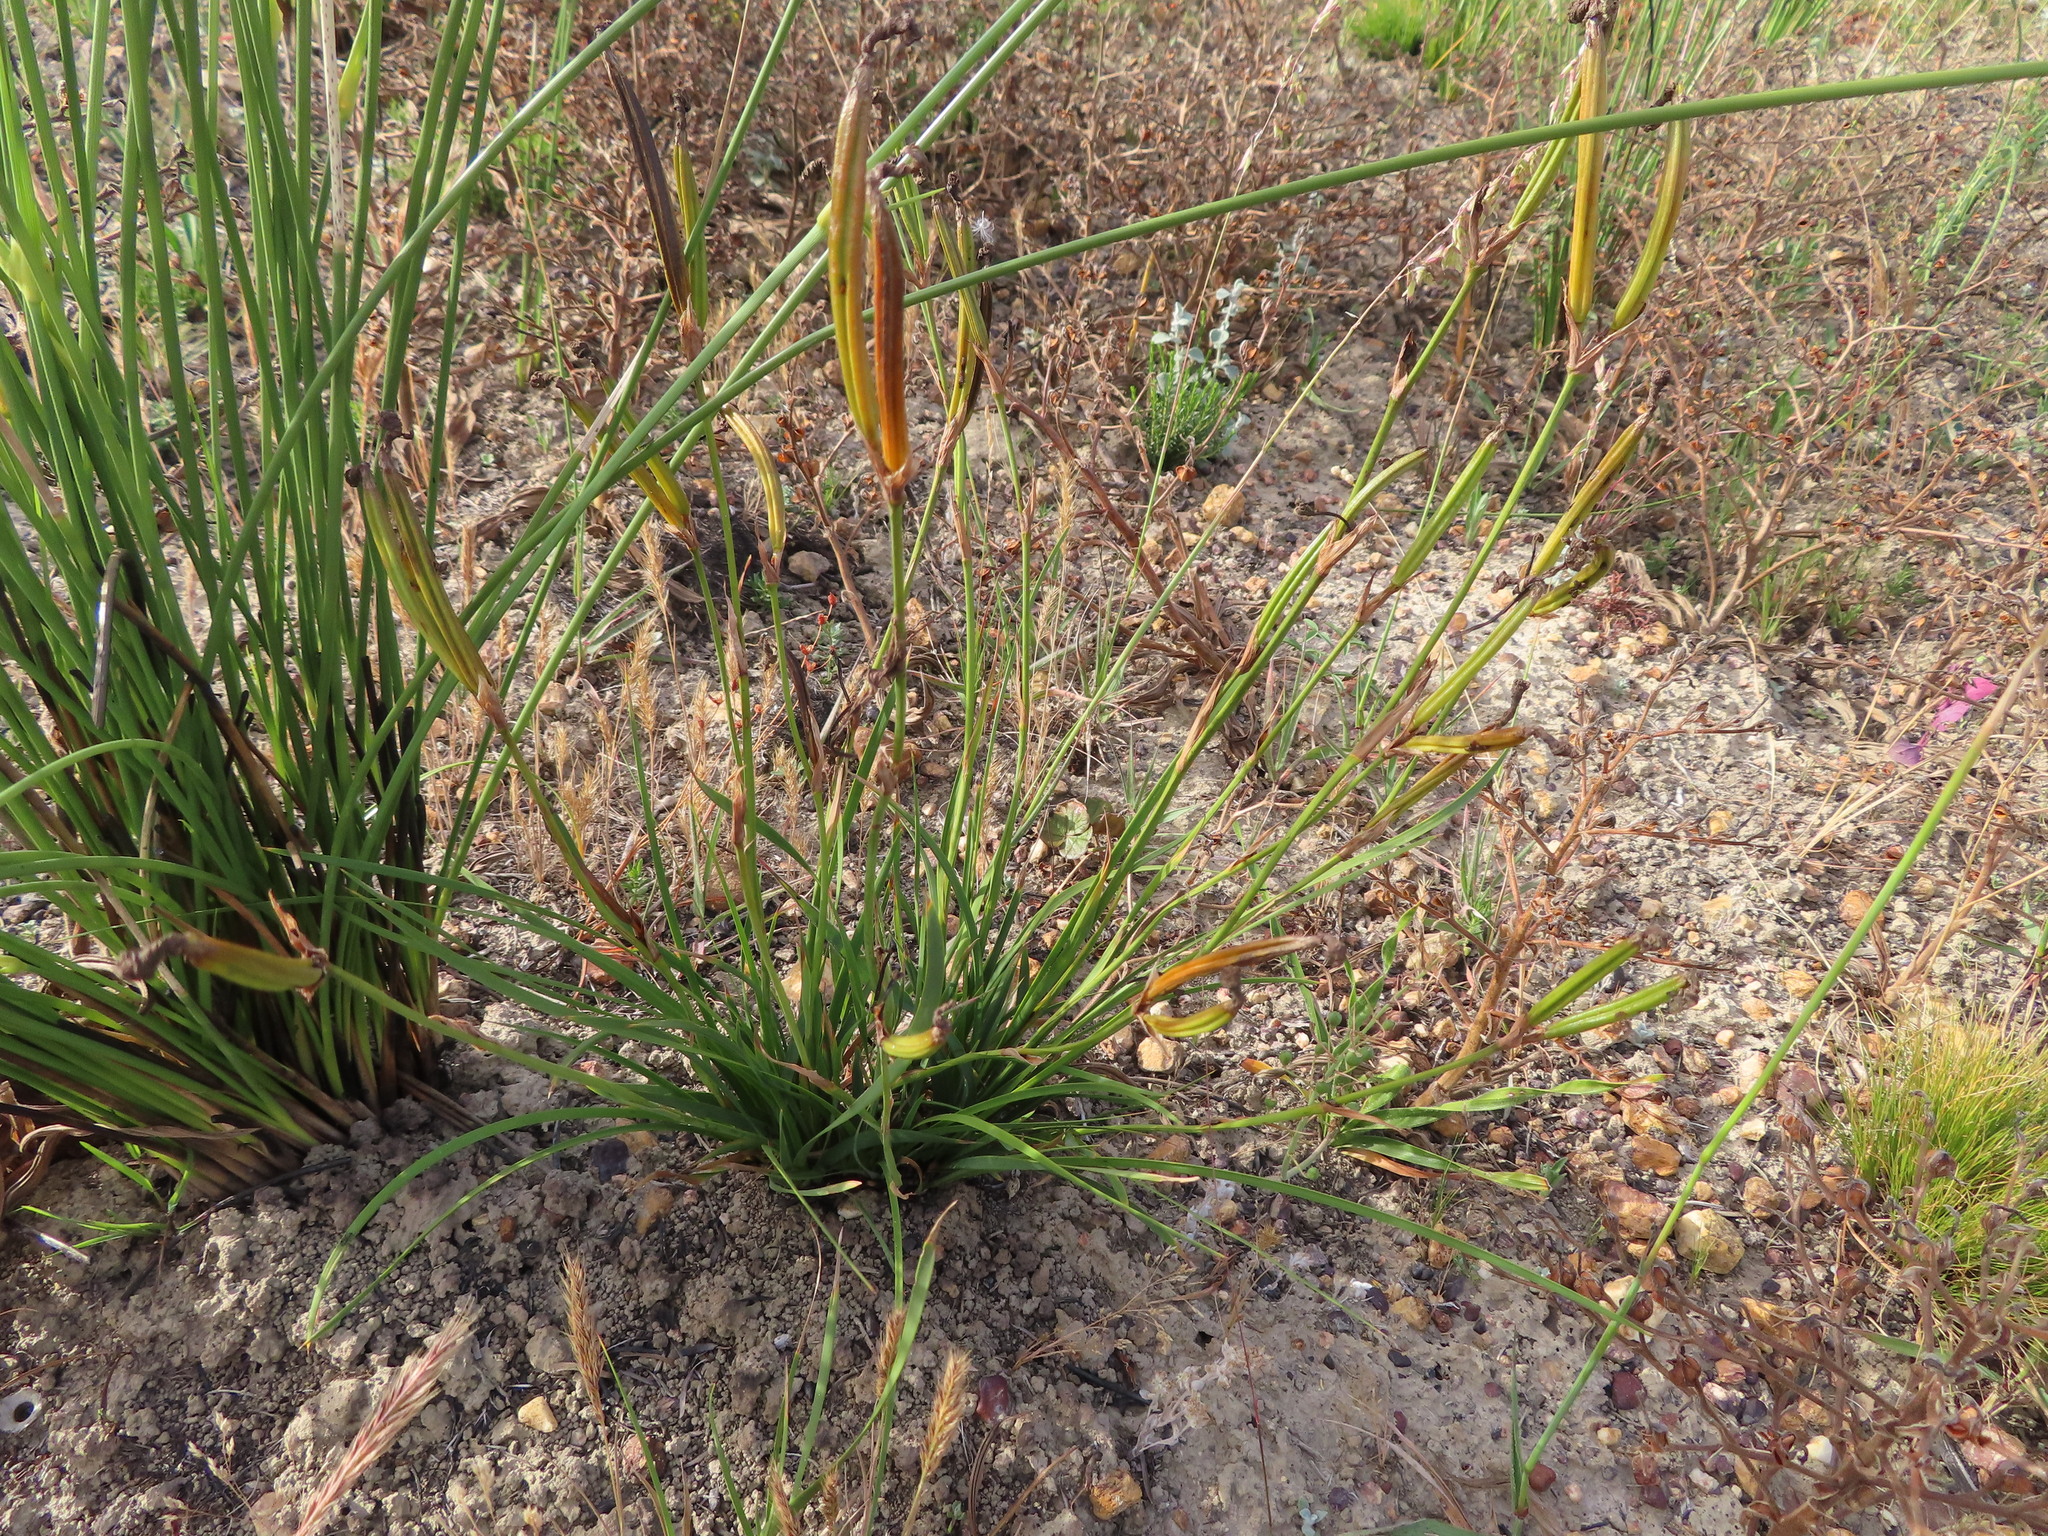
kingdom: Plantae
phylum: Tracheophyta
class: Liliopsida
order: Asparagales
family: Iridaceae
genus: Aristea
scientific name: Aristea biflora
